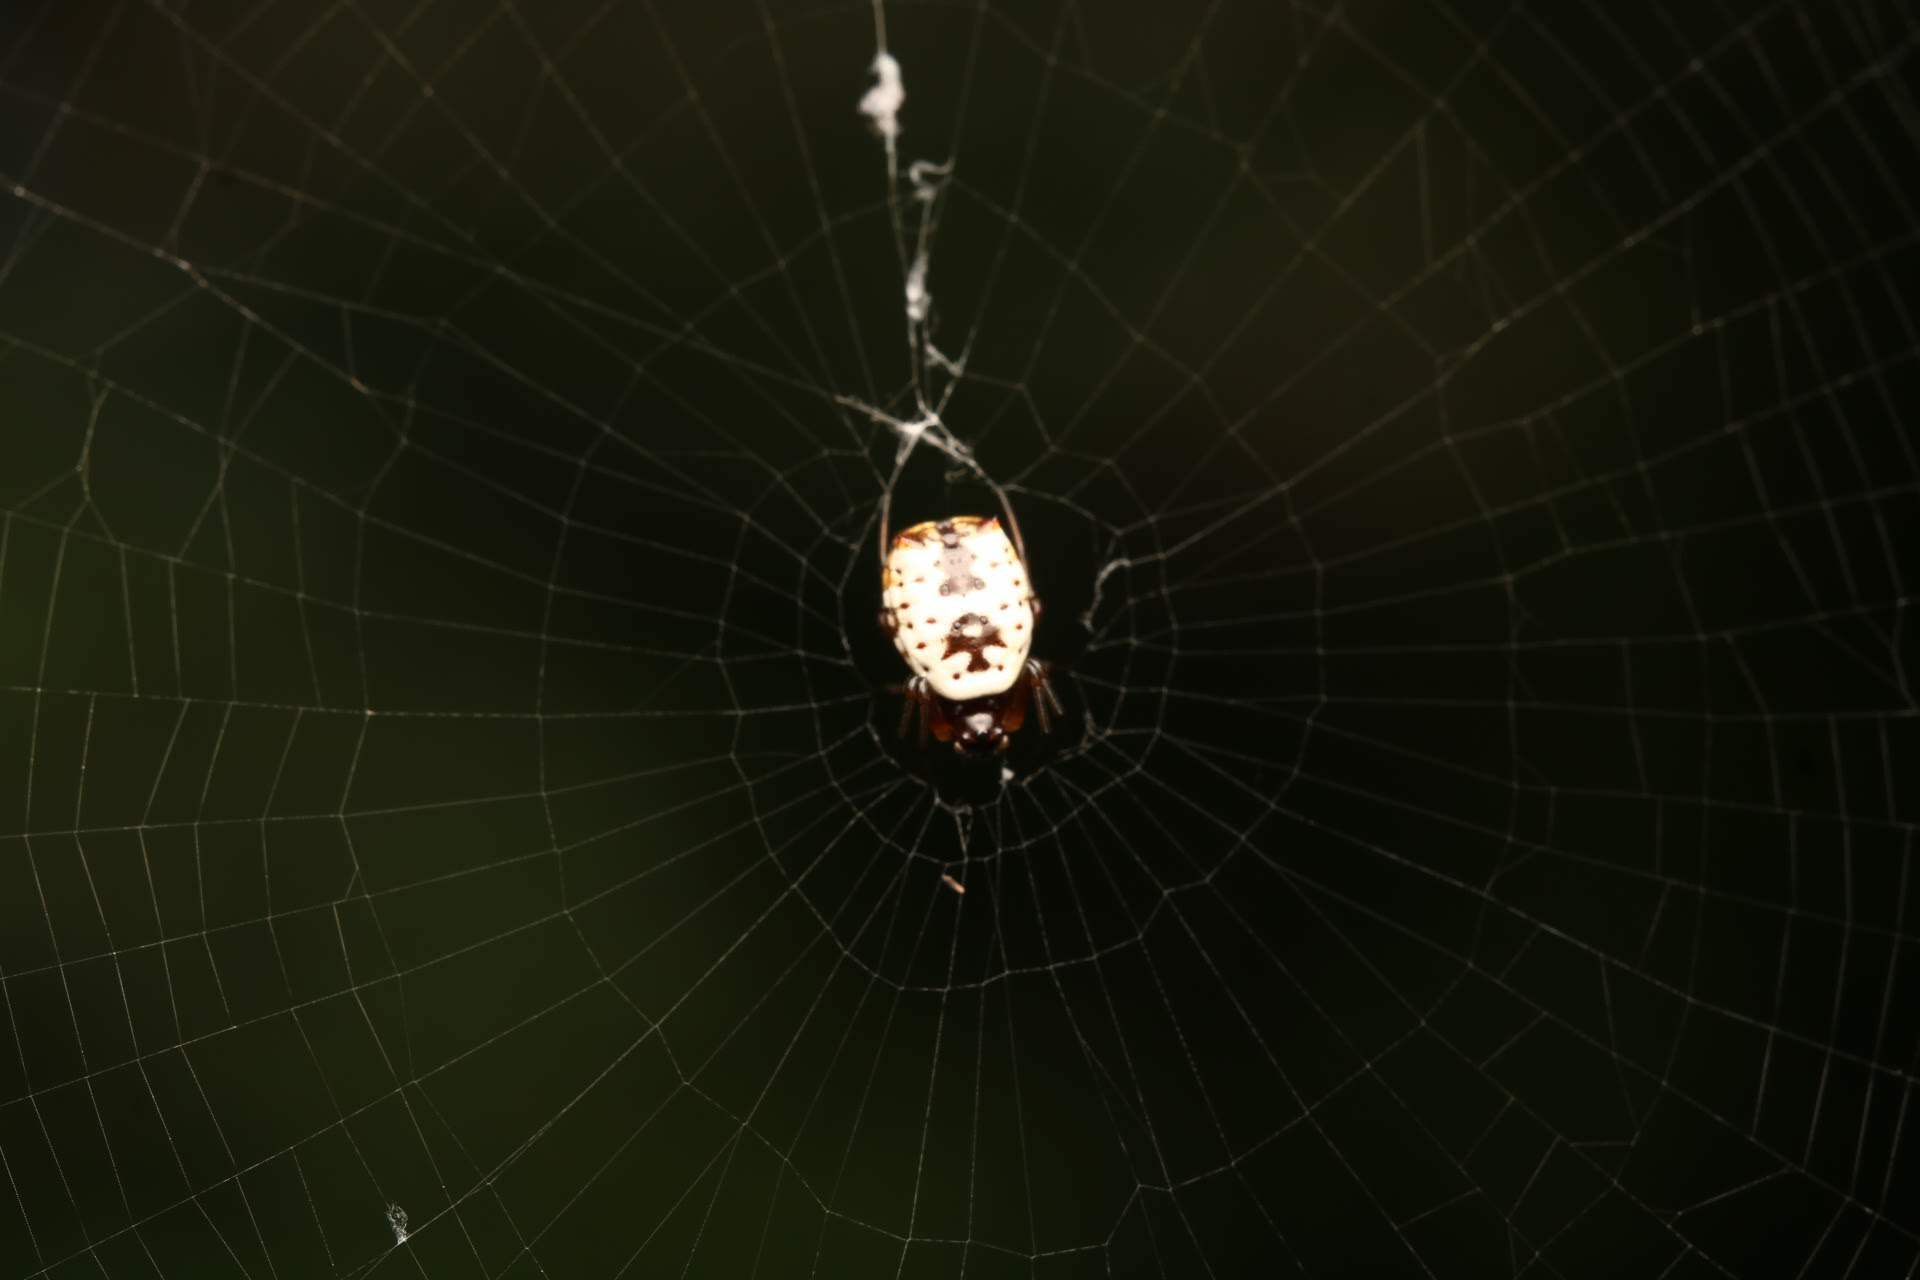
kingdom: Animalia
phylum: Arthropoda
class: Arachnida
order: Araneae
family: Araneidae
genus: Micrathena
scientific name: Micrathena mitrata
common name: Orb weavers
